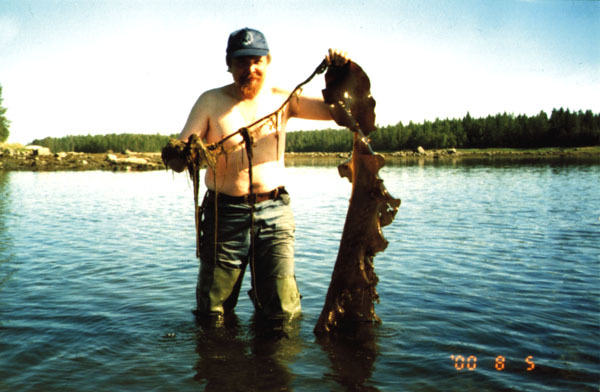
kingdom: Chromista
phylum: Ochrophyta
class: Phaeophyceae
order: Laminariales
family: Laminariaceae
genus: Saccharina
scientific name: Saccharina latissima
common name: Poor man's weather glass
